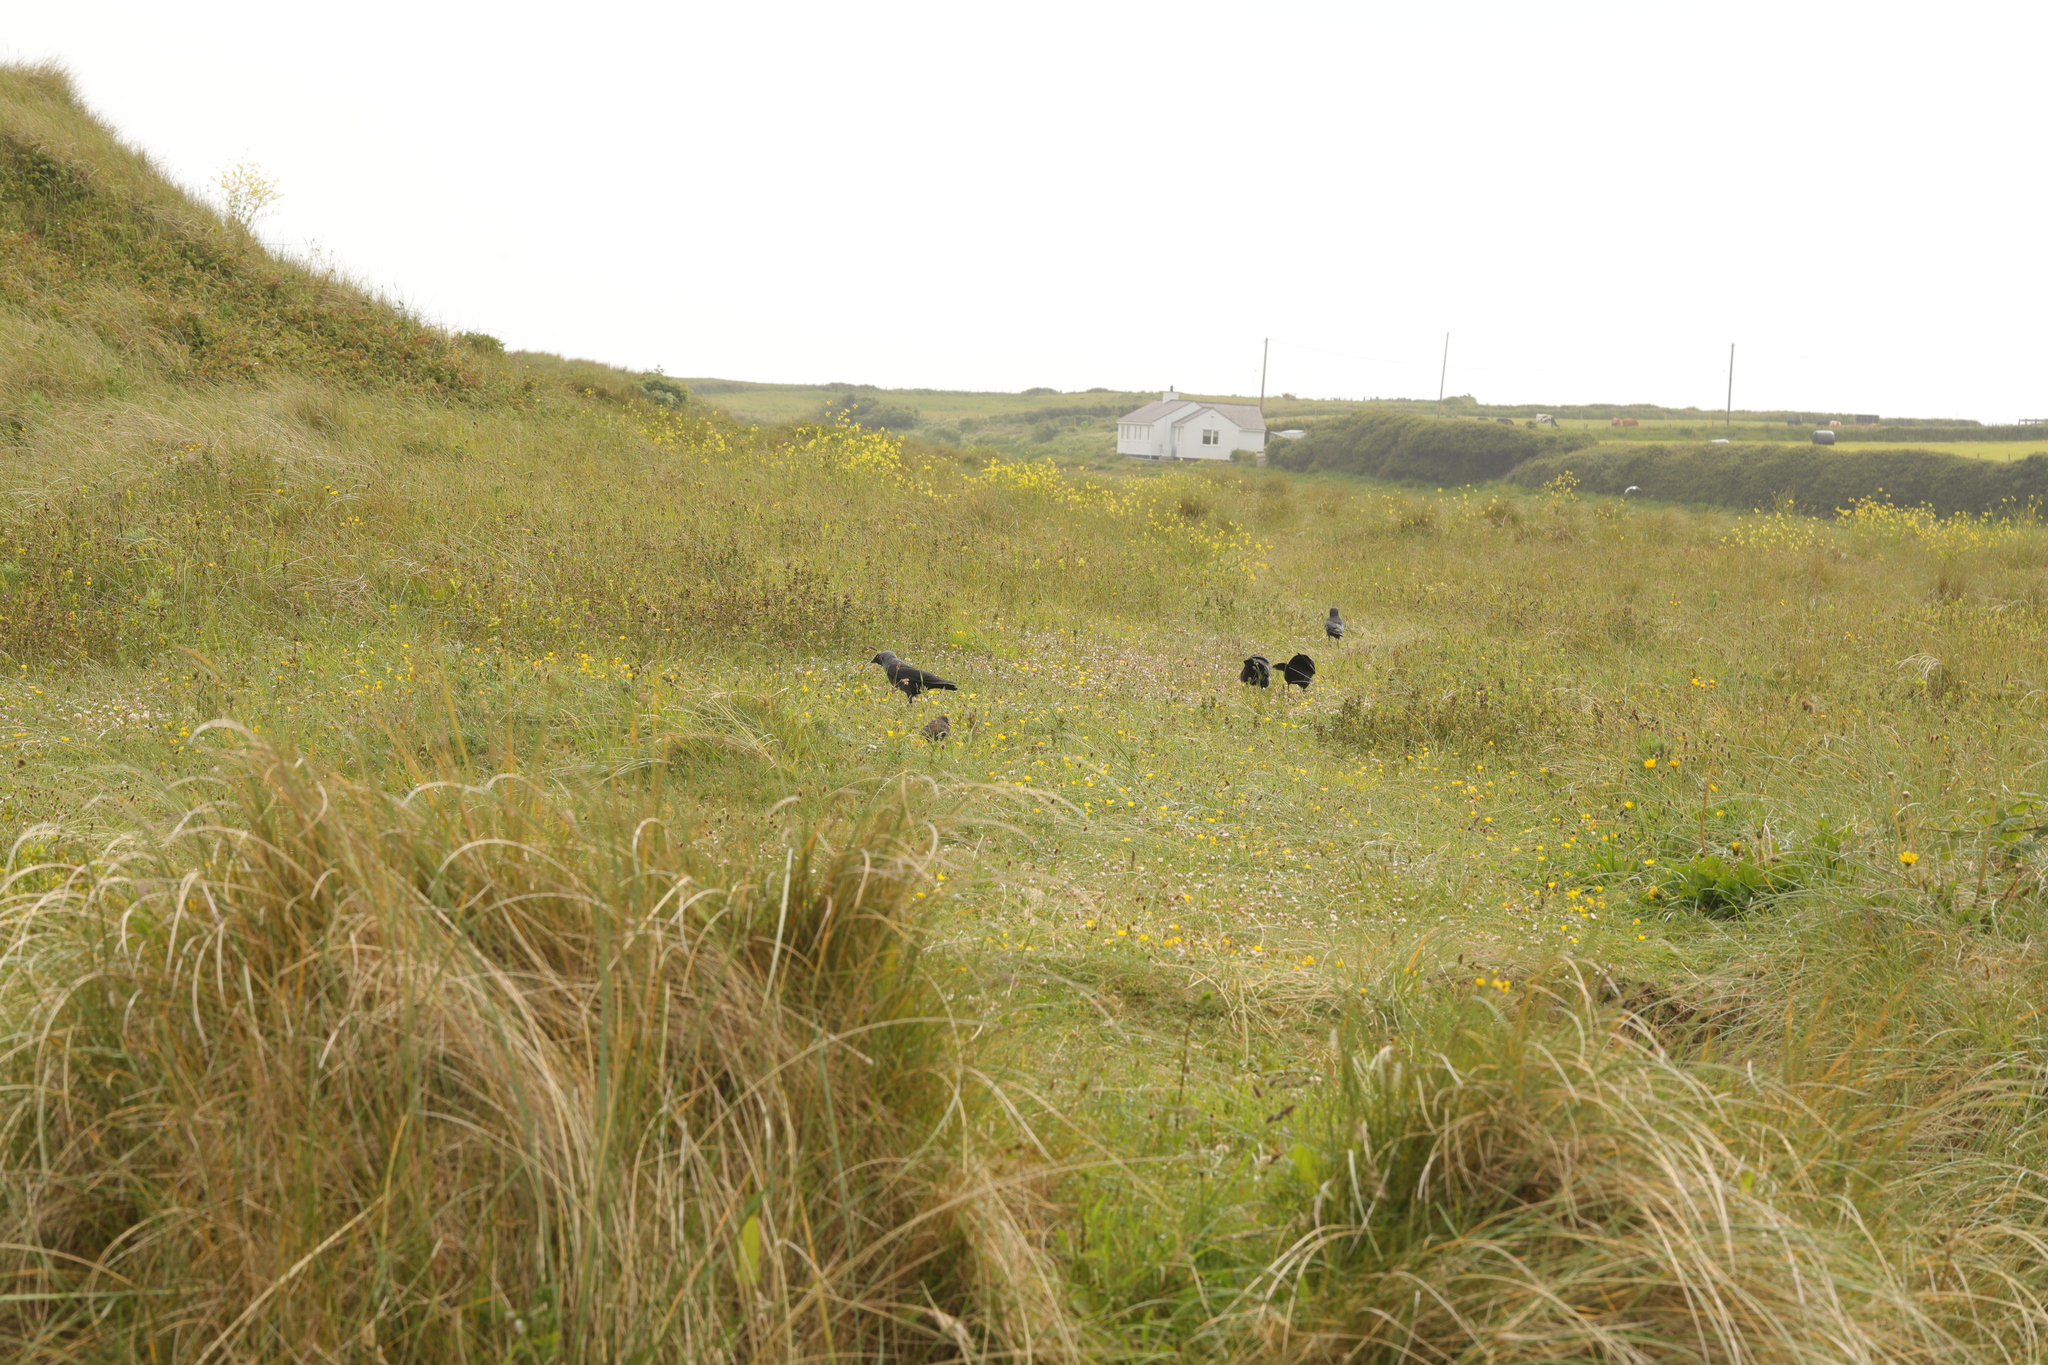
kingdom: Animalia
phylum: Chordata
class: Aves
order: Passeriformes
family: Corvidae
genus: Coloeus
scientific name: Coloeus monedula
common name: Western jackdaw
